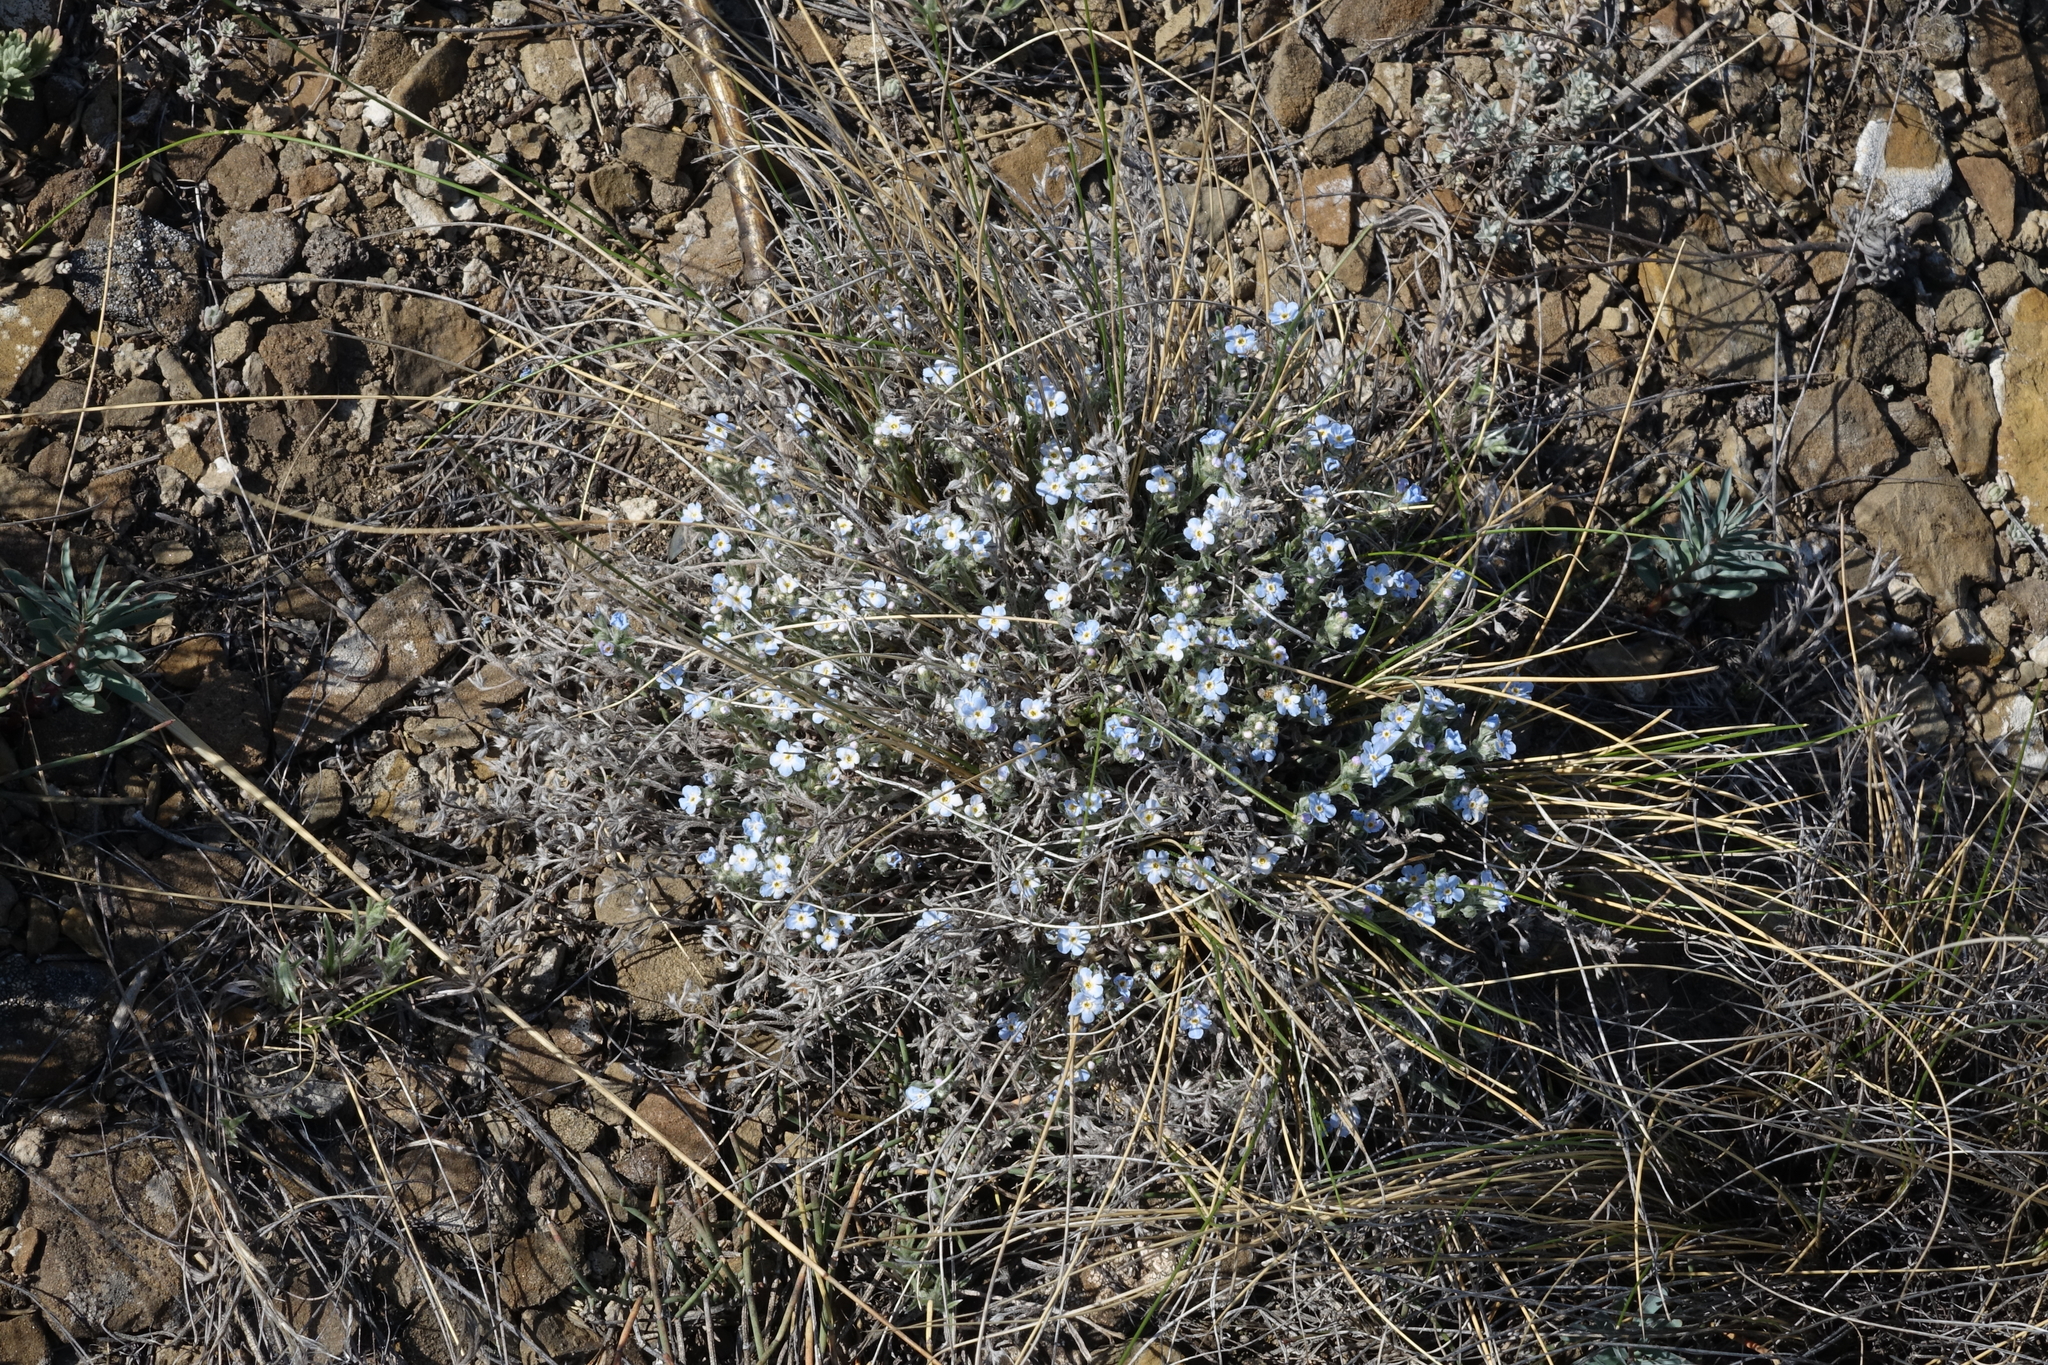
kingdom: Plantae
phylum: Tracheophyta
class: Magnoliopsida
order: Boraginales
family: Boraginaceae
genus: Eritrichium
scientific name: Eritrichium rupestre
